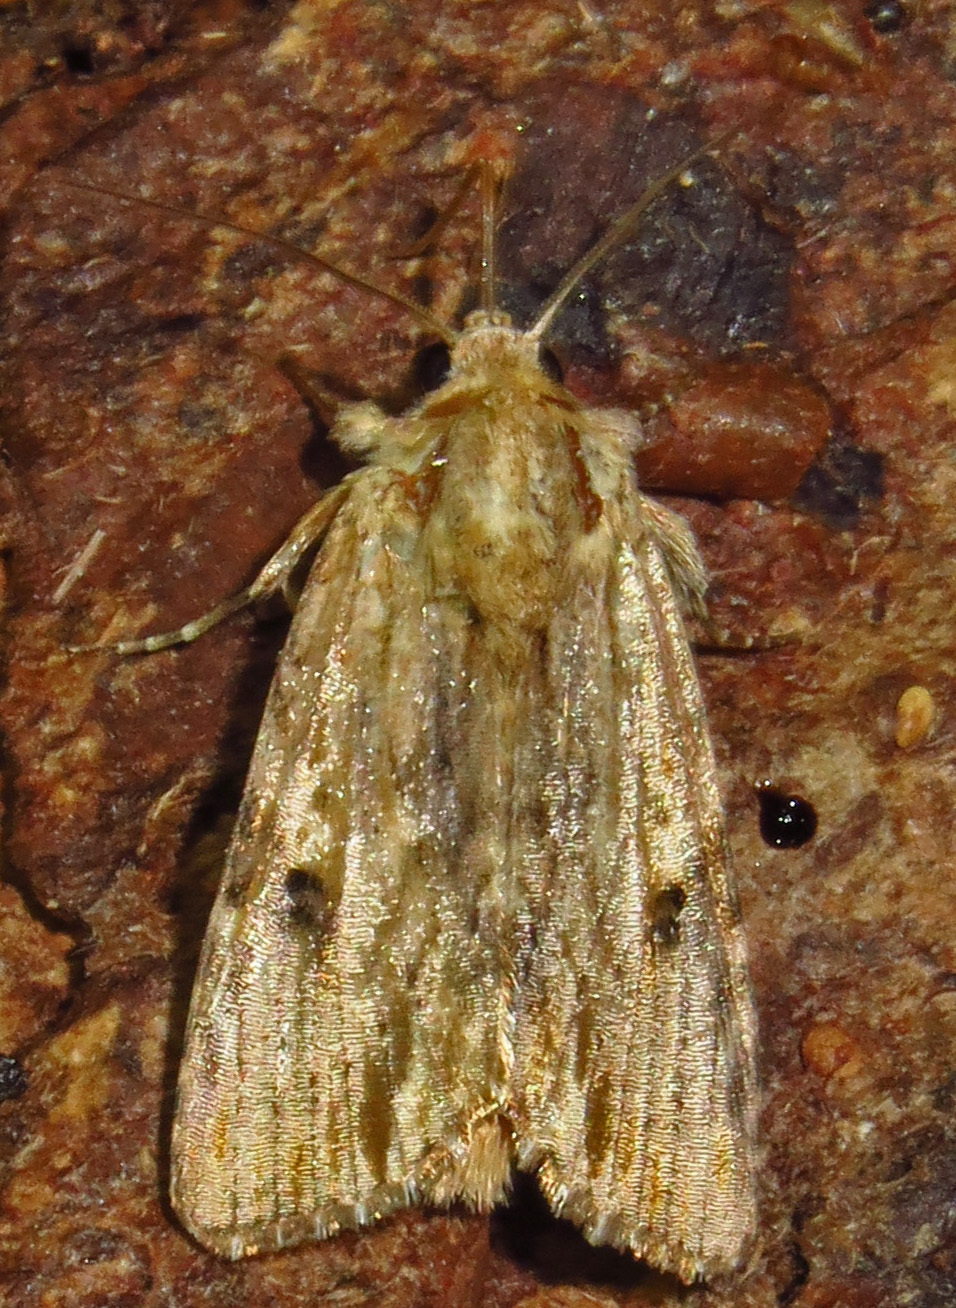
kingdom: Animalia
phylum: Arthropoda
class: Insecta
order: Lepidoptera
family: Noctuidae
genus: Spodoptera
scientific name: Spodoptera eridania
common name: Southern army worm
